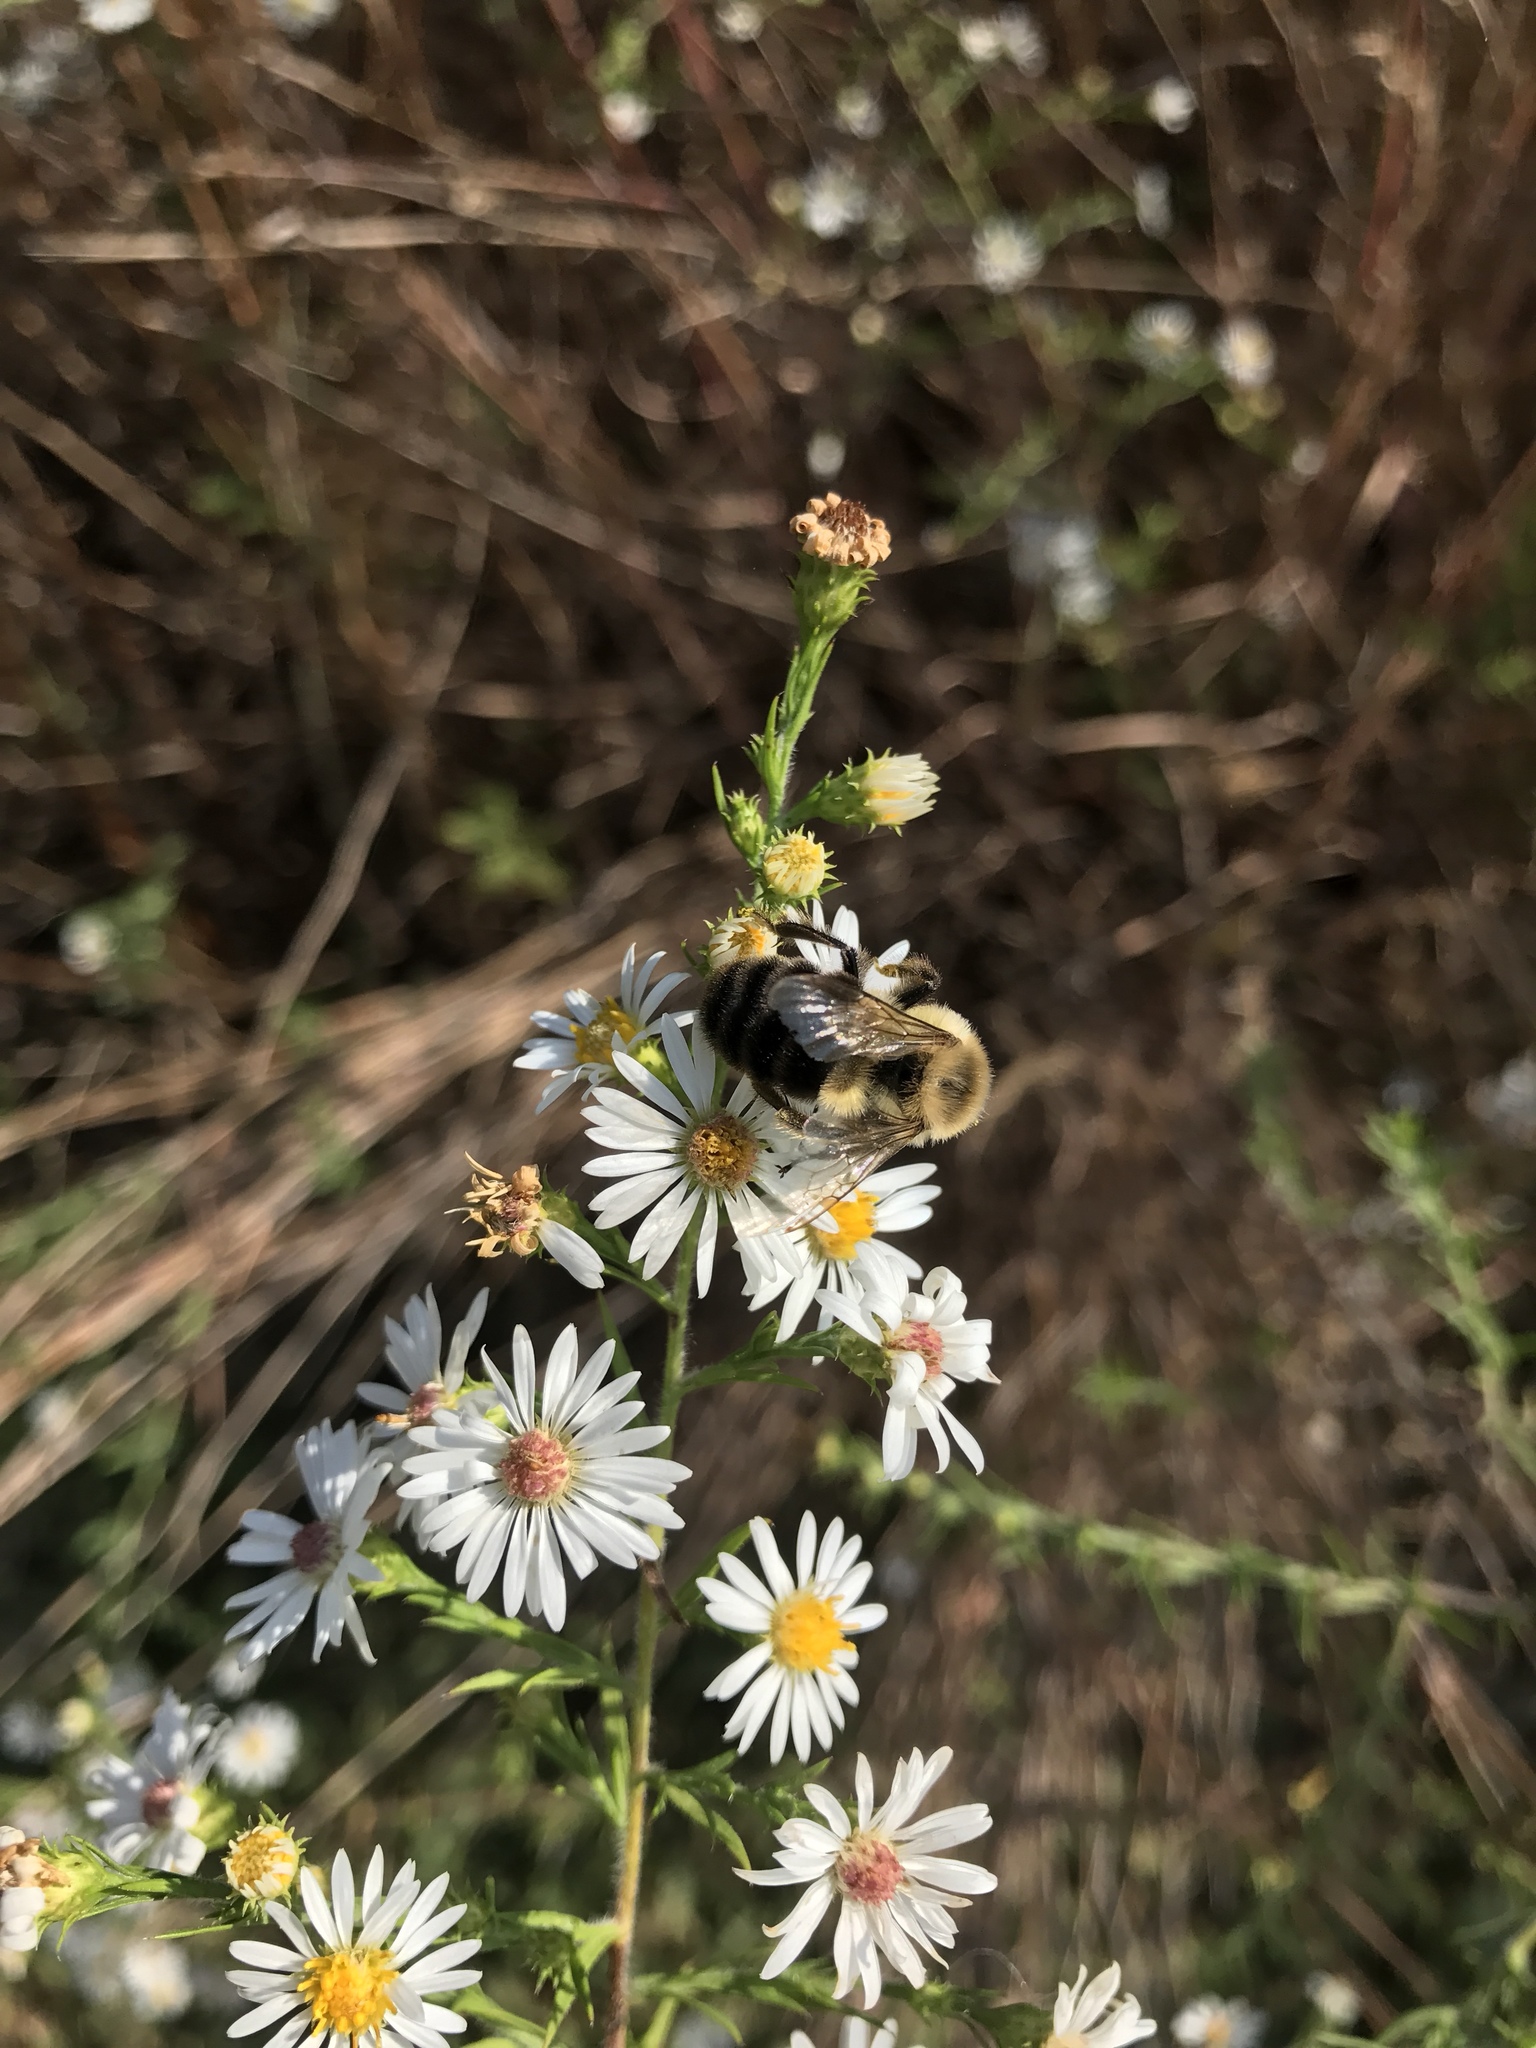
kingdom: Animalia
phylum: Arthropoda
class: Insecta
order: Hymenoptera
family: Apidae
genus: Bombus
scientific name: Bombus impatiens
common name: Common eastern bumble bee
